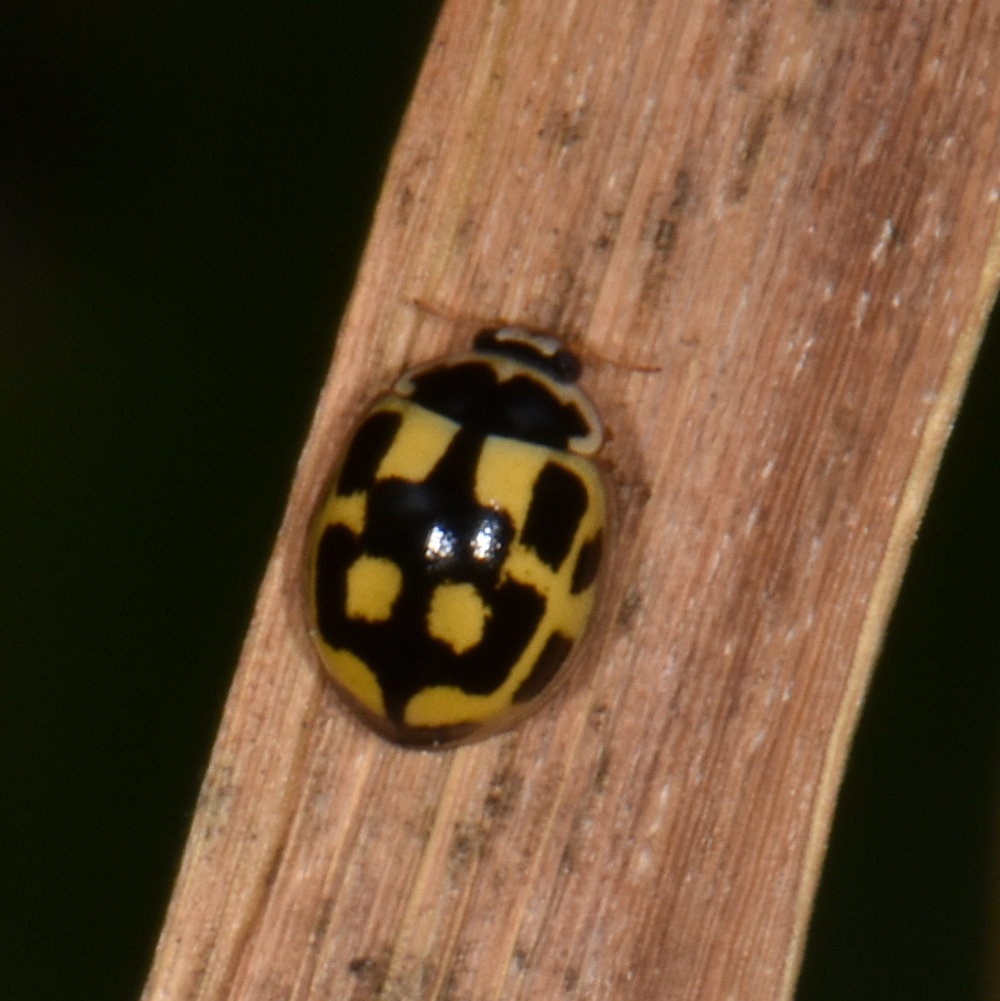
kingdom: Animalia
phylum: Arthropoda
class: Insecta
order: Coleoptera
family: Coccinellidae
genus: Propylaea
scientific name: Propylaea quatuordecimpunctata
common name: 14-spotted ladybird beetle
